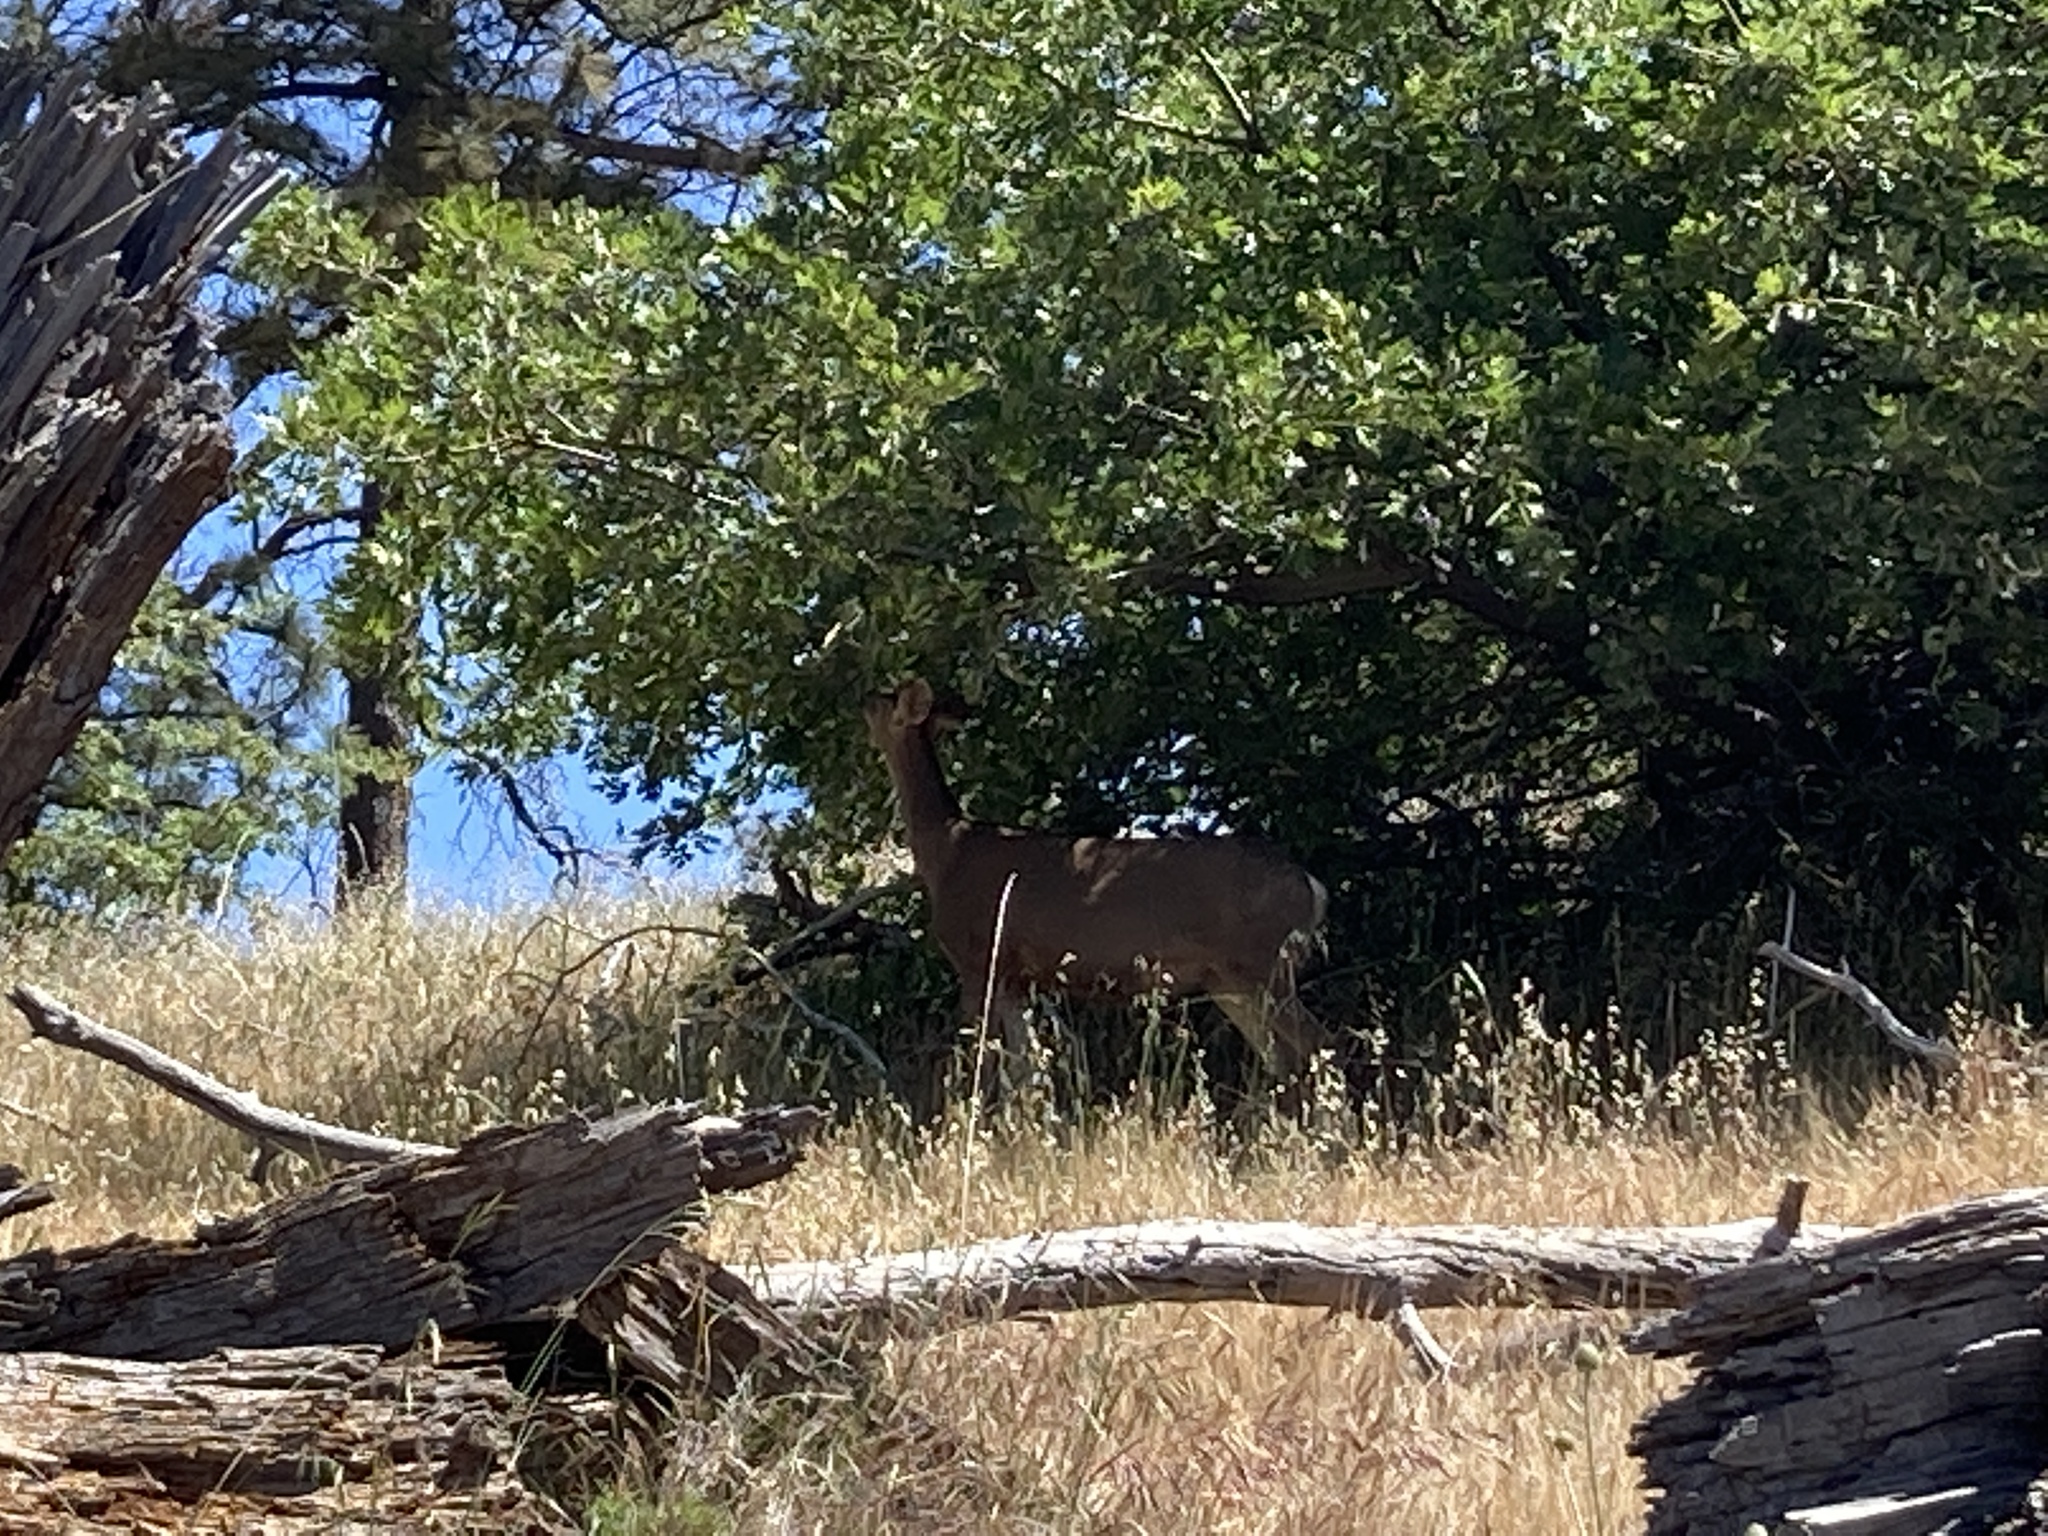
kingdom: Animalia
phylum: Chordata
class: Mammalia
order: Artiodactyla
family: Cervidae
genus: Odocoileus
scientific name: Odocoileus hemionus
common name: Mule deer
